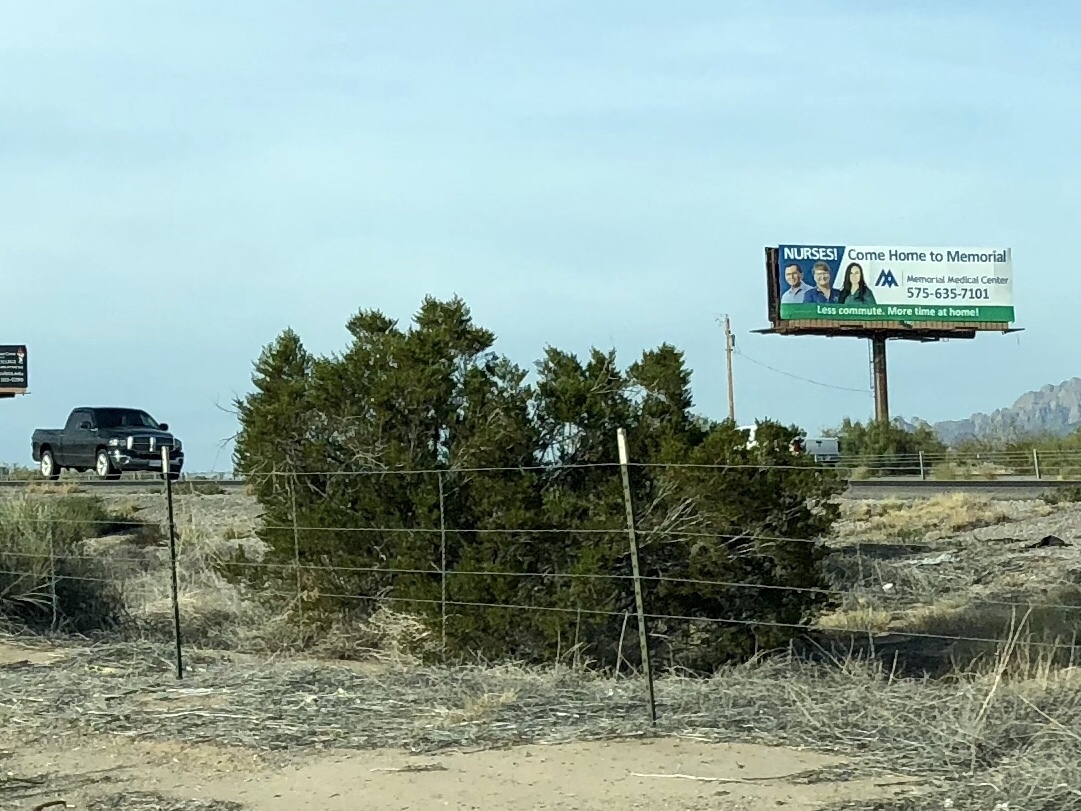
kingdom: Plantae
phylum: Tracheophyta
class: Magnoliopsida
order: Zygophyllales
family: Zygophyllaceae
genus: Larrea
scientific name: Larrea tridentata
